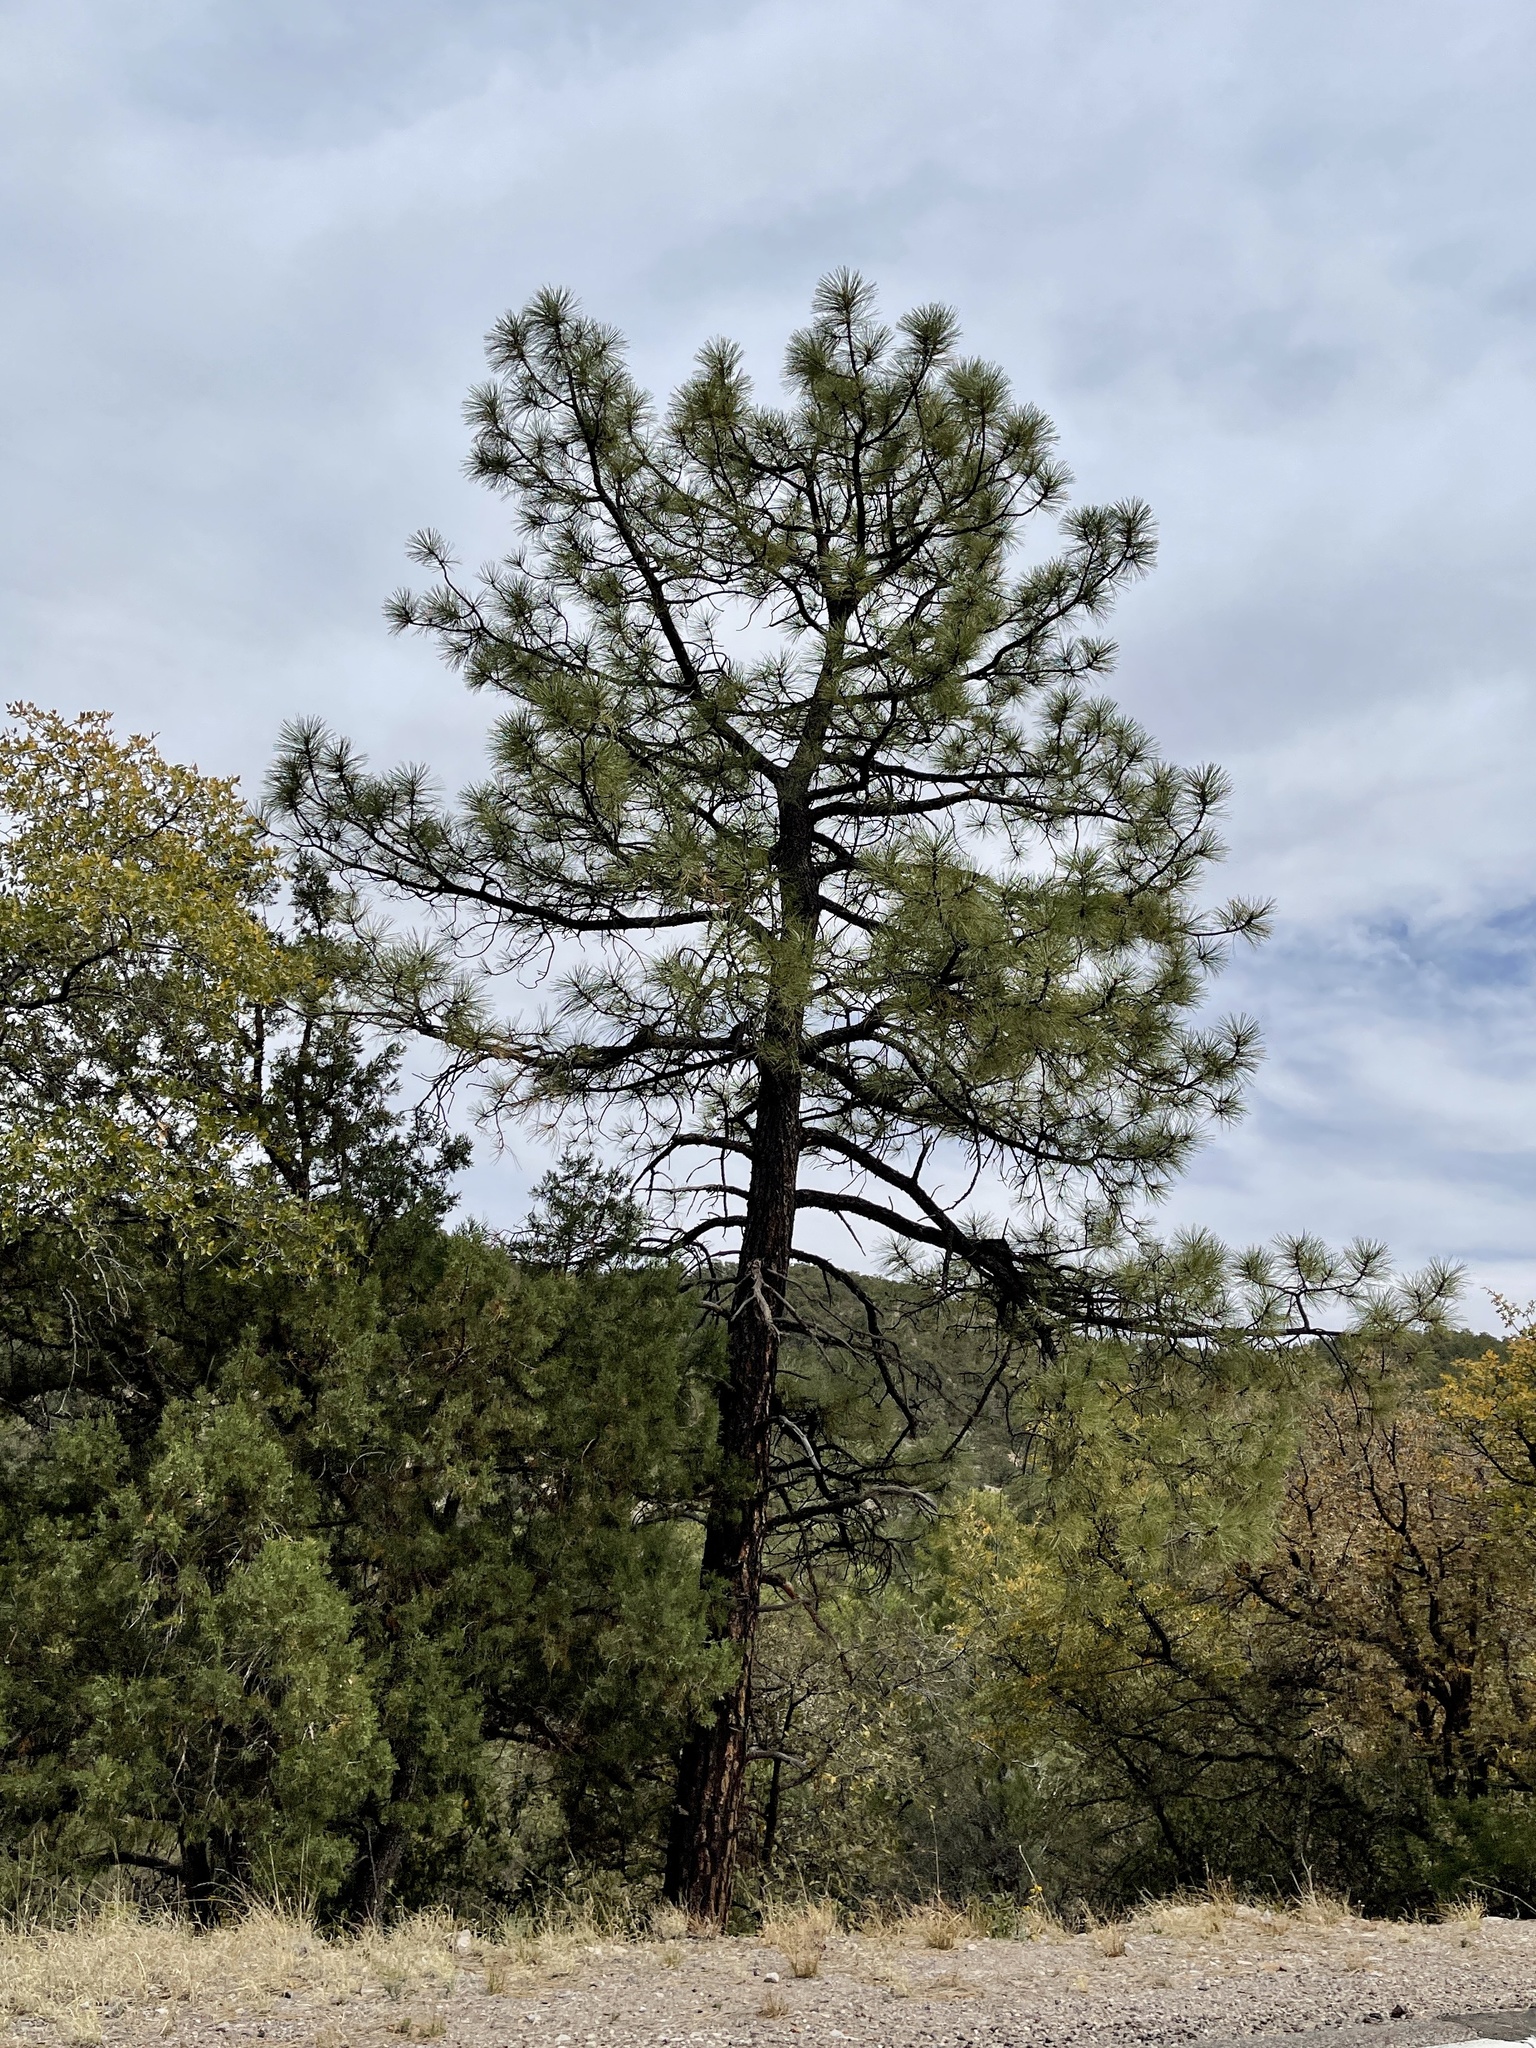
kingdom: Plantae
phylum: Tracheophyta
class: Pinopsida
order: Pinales
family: Pinaceae
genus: Pinus
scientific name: Pinus ponderosa
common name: Western yellow-pine
